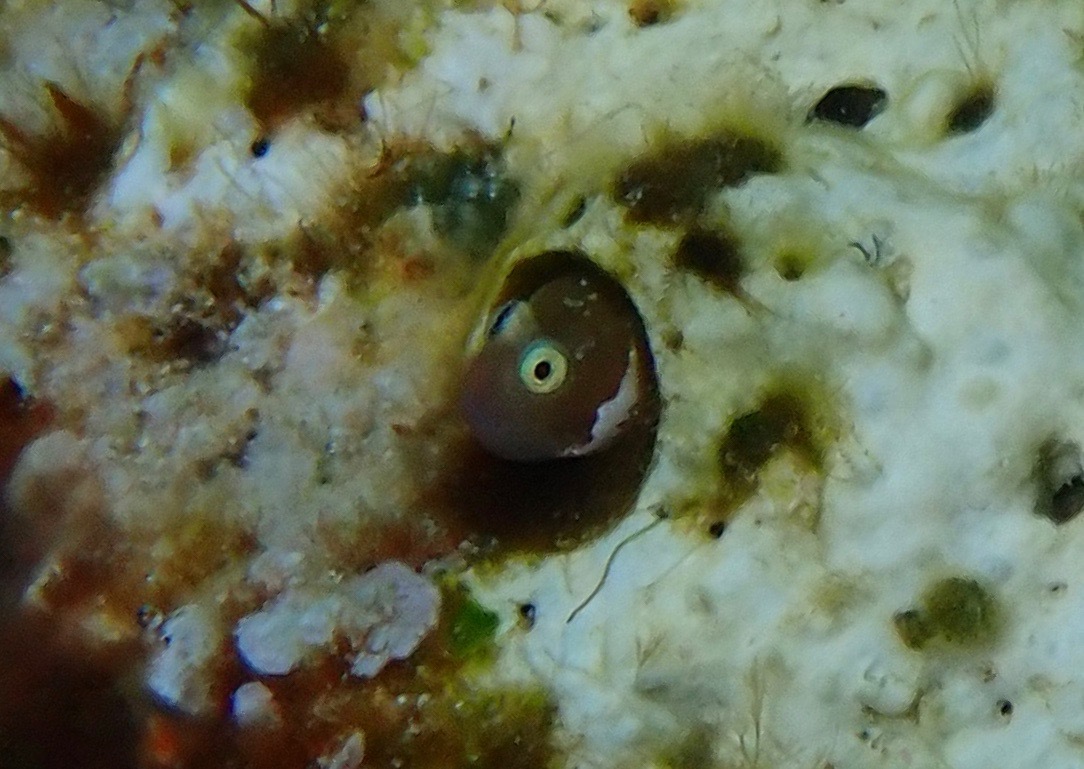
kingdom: Animalia
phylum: Chordata
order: Perciformes
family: Blenniidae
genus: Cirrisalarias
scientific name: Cirrisalarias bunares
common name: Hairy bleny
